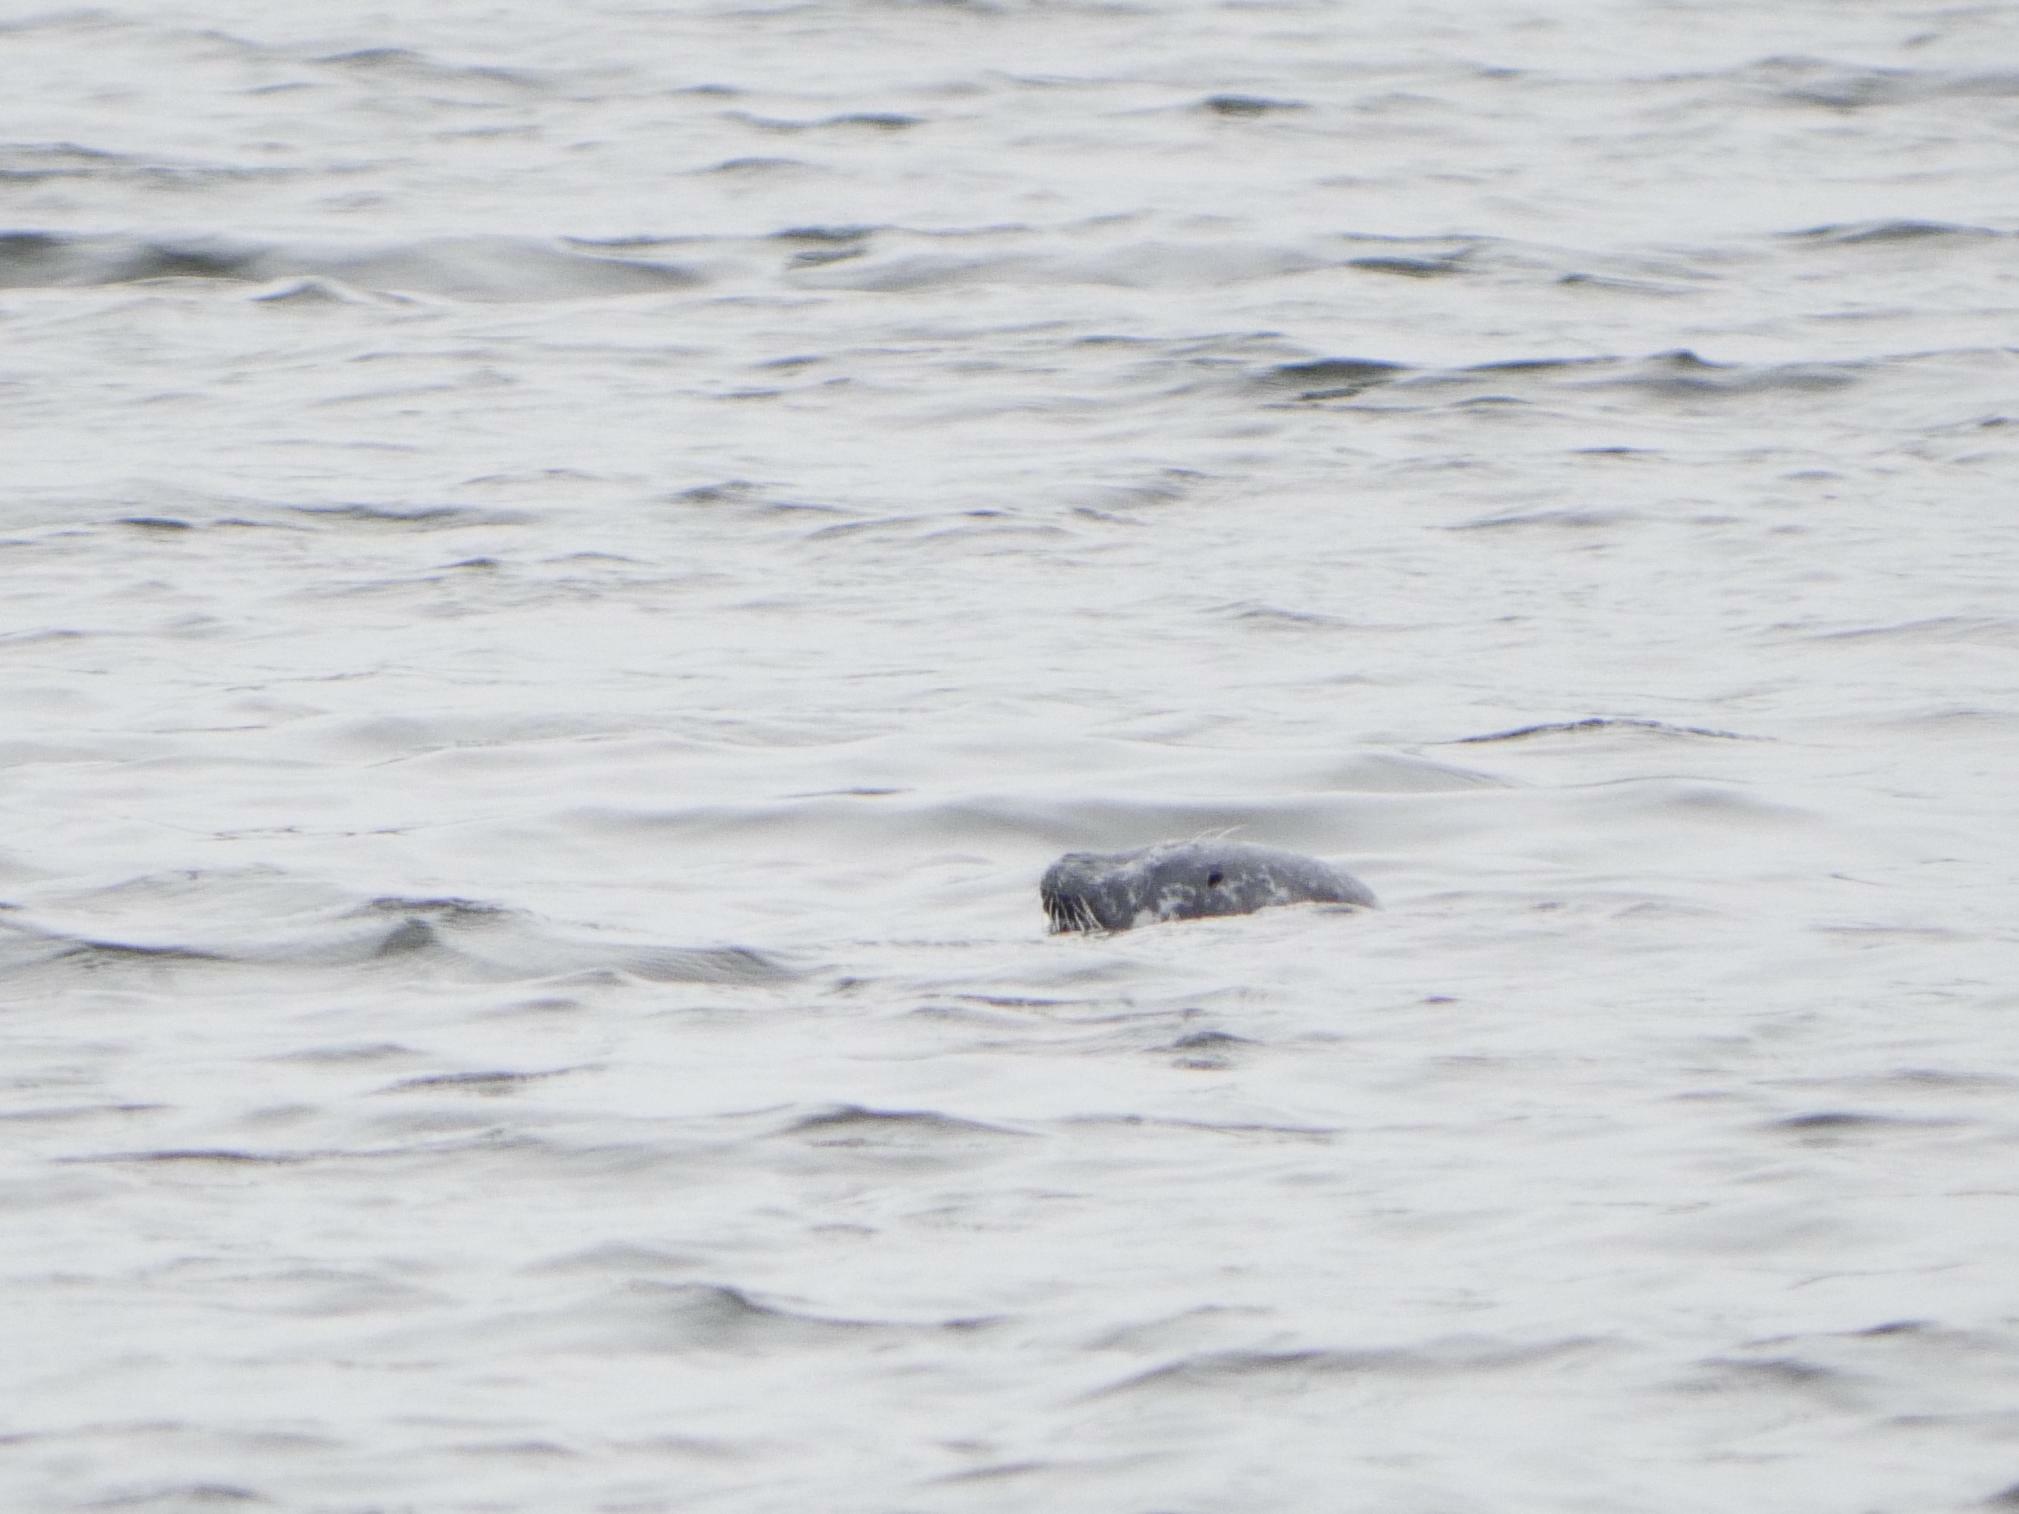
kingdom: Animalia
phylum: Chordata
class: Mammalia
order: Carnivora
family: Phocidae
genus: Phoca
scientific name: Phoca vitulina
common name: Harbor seal
